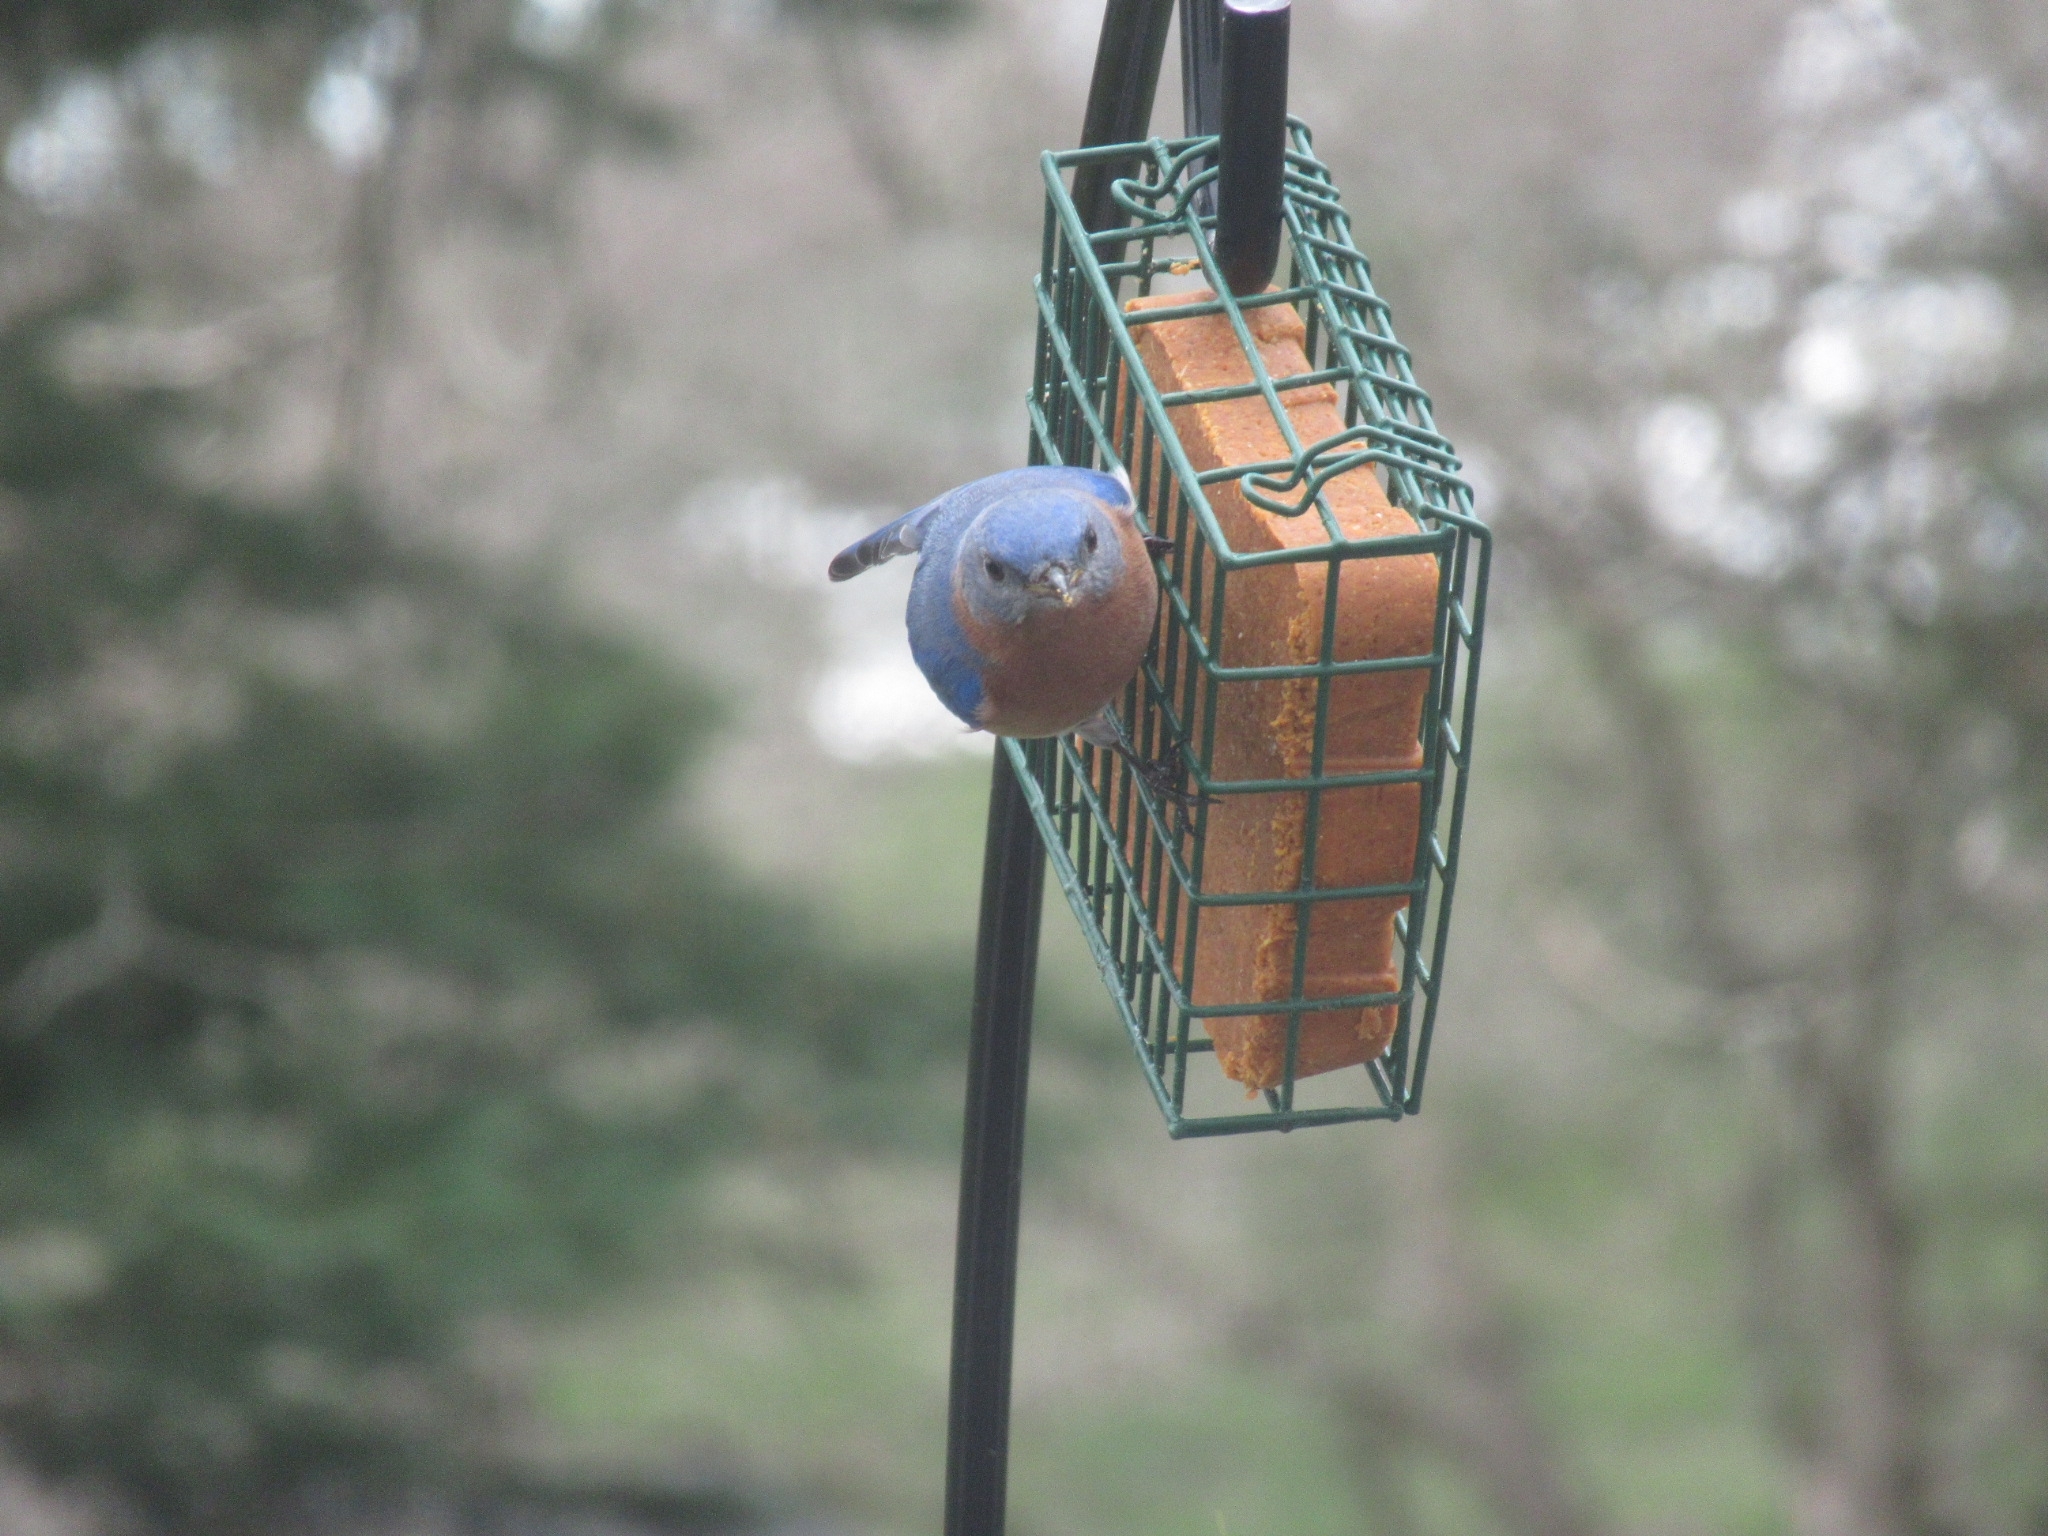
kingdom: Animalia
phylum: Chordata
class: Aves
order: Passeriformes
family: Turdidae
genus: Sialia
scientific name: Sialia sialis
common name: Eastern bluebird
